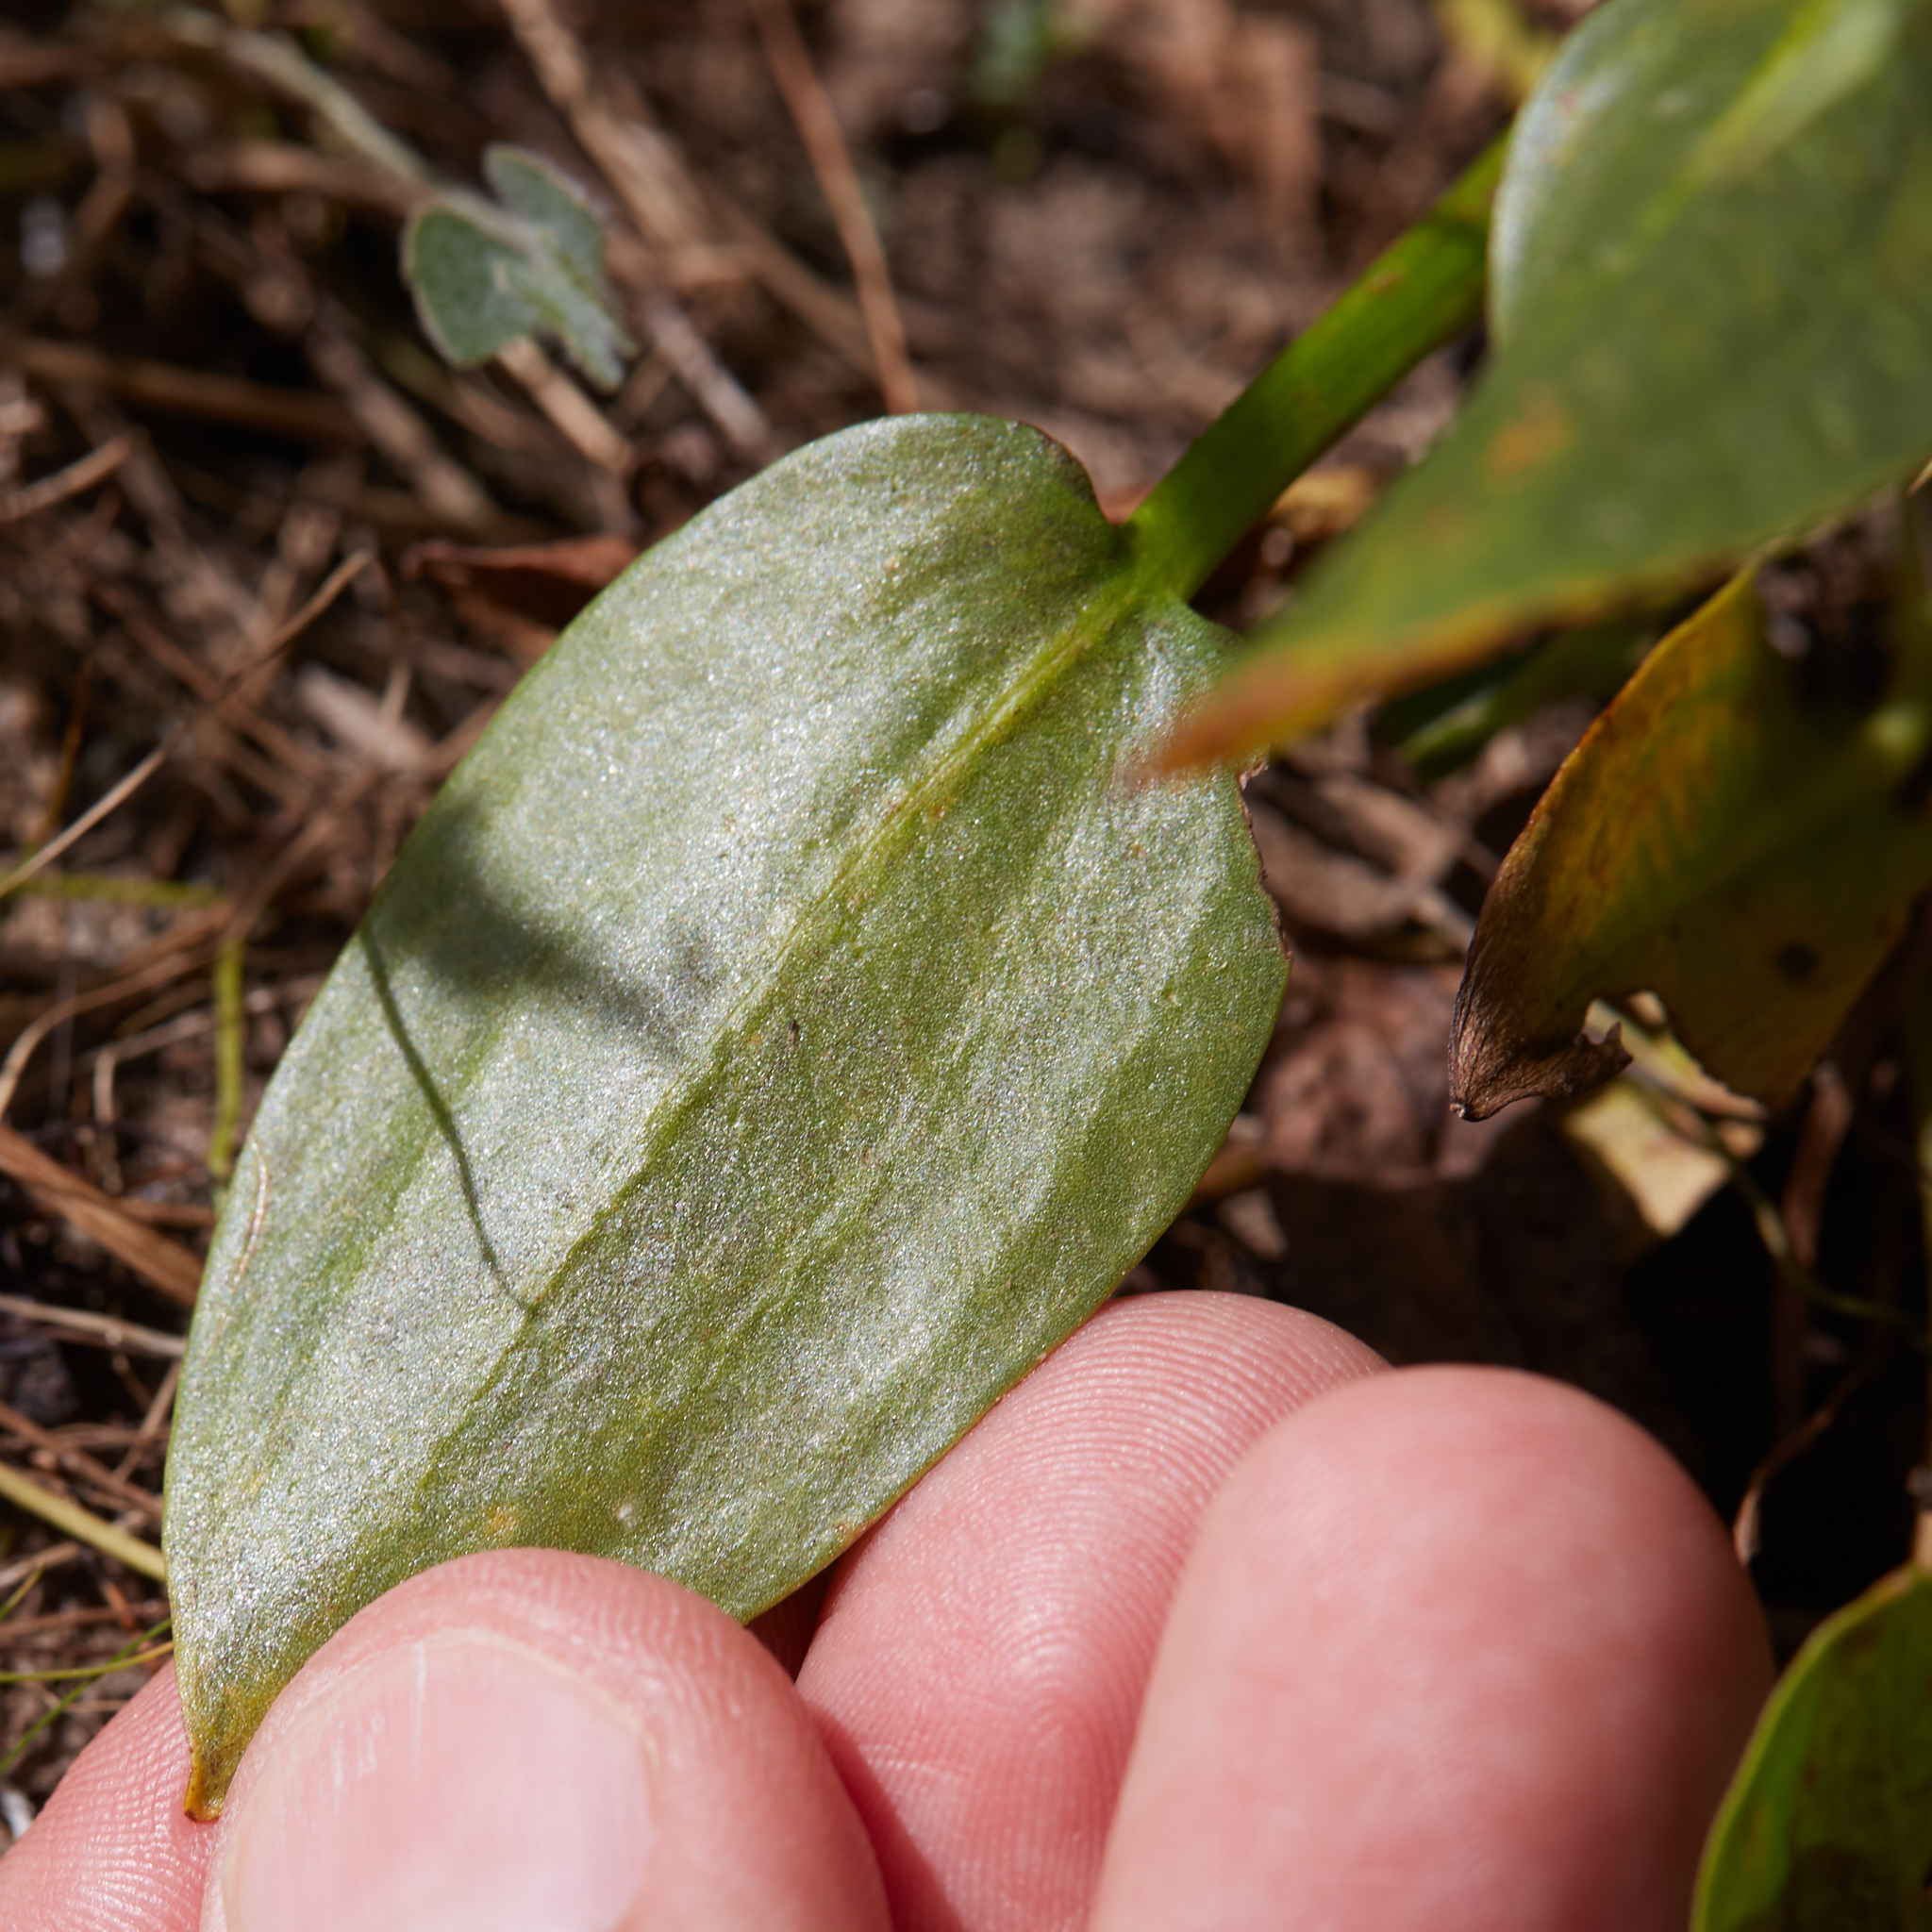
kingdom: Plantae
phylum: Tracheophyta
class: Liliopsida
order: Alismatales
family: Alismataceae
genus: Damasonium
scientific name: Damasonium californicum
